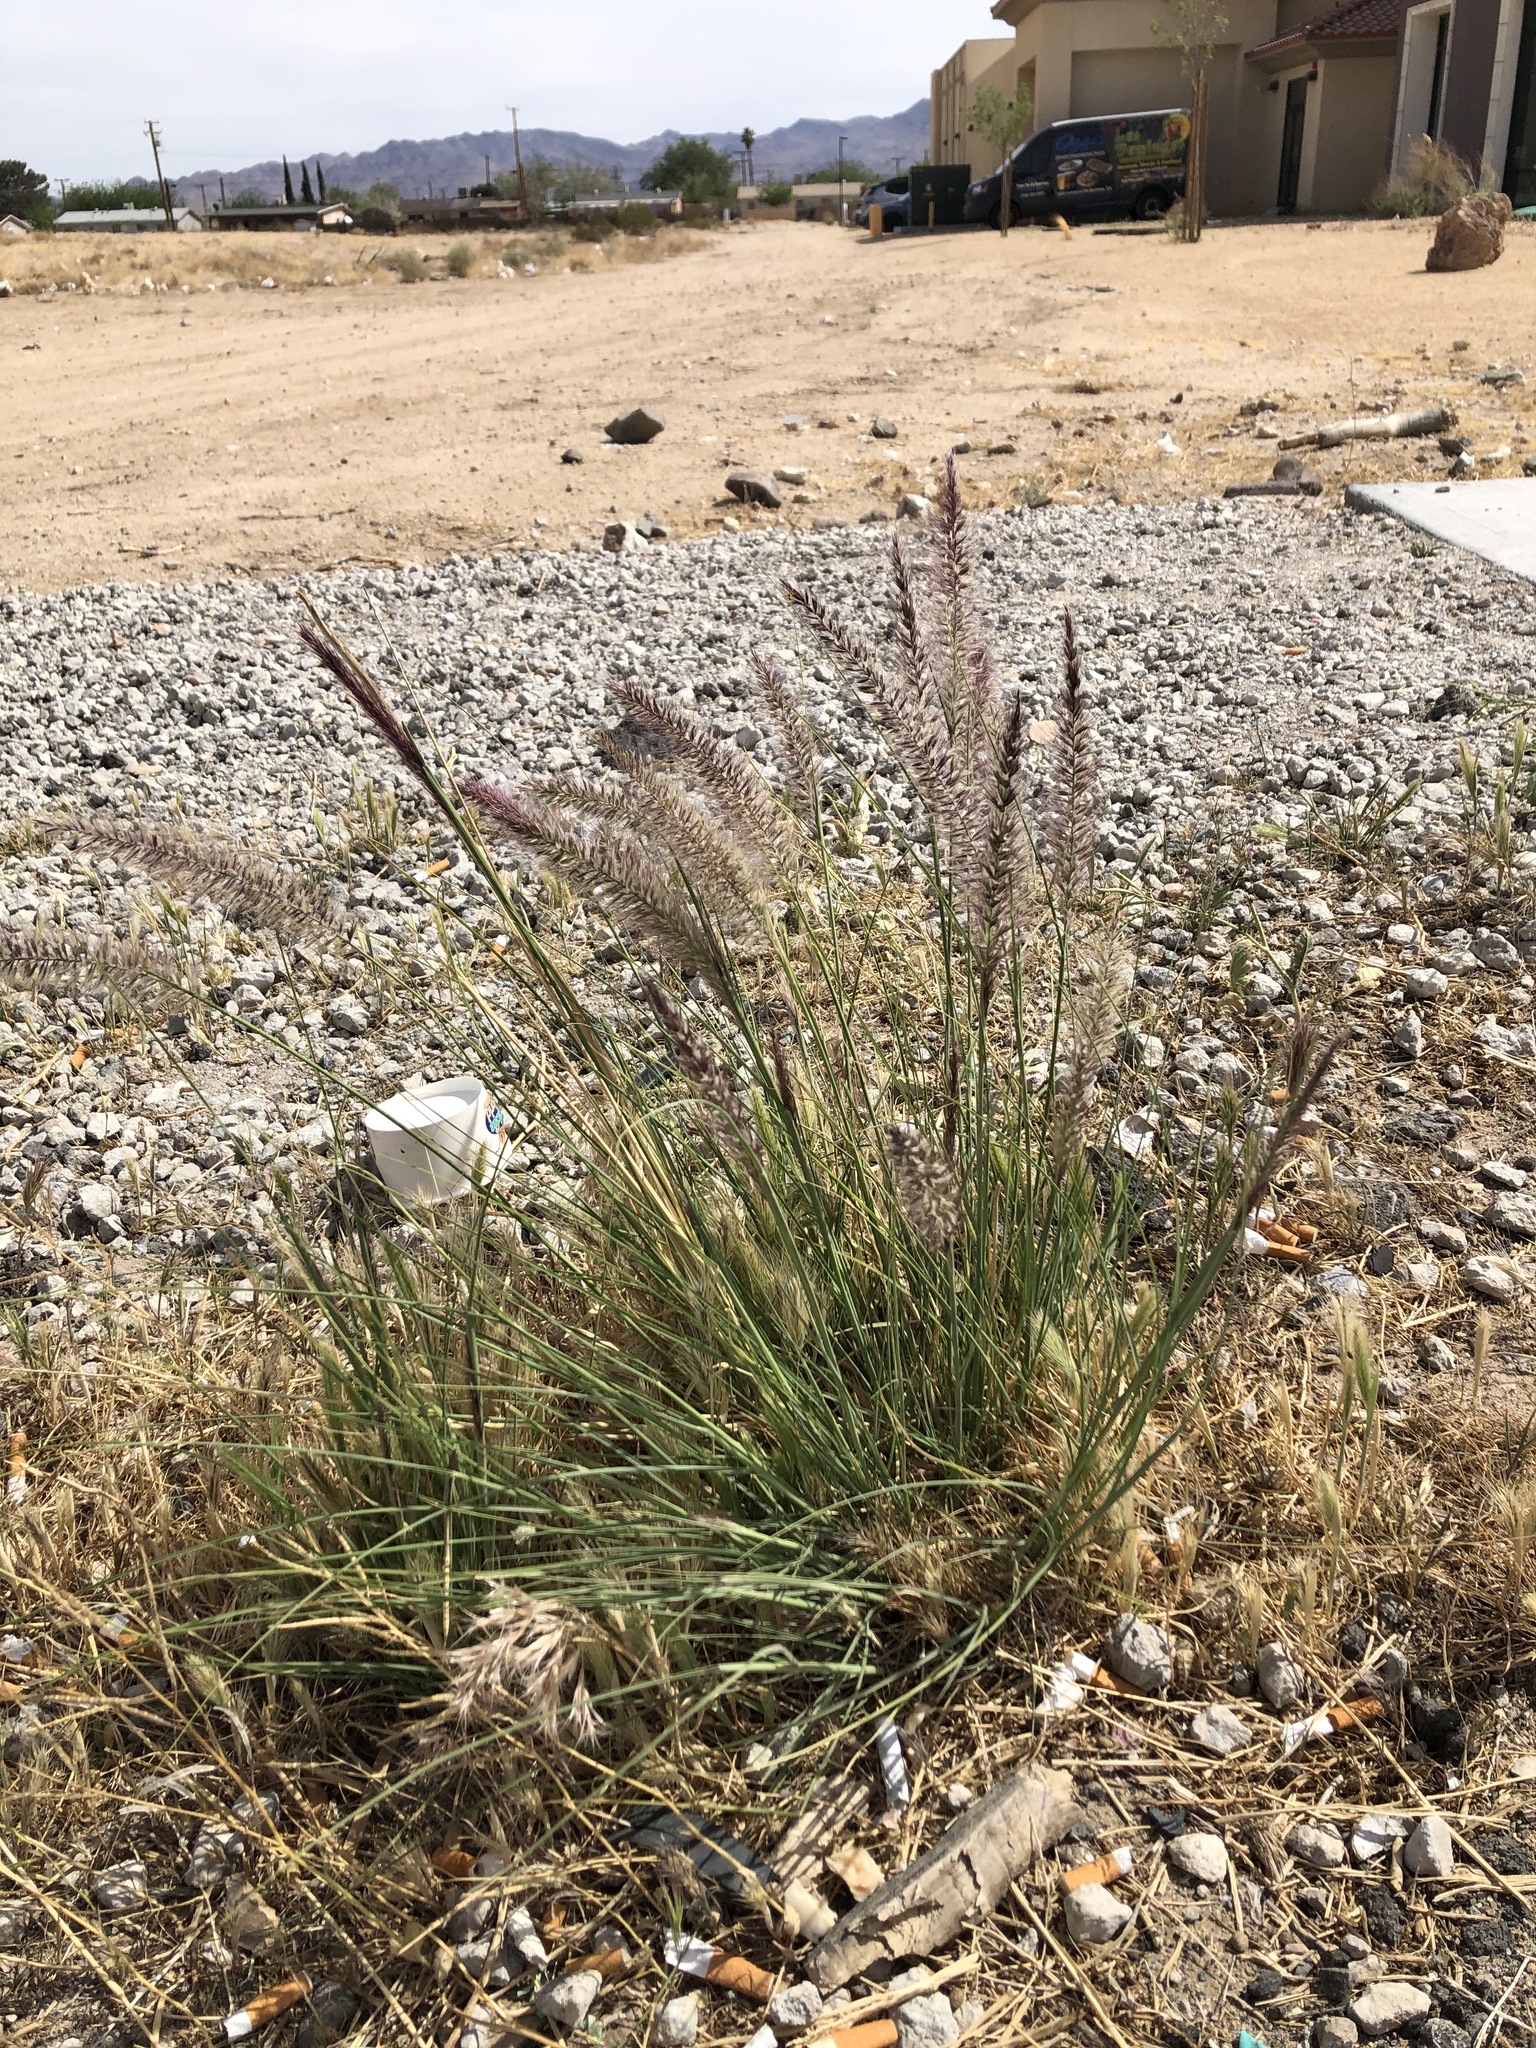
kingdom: Plantae
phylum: Tracheophyta
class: Liliopsida
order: Poales
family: Poaceae
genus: Cenchrus
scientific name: Cenchrus setaceus
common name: Crimson fountaingrass
